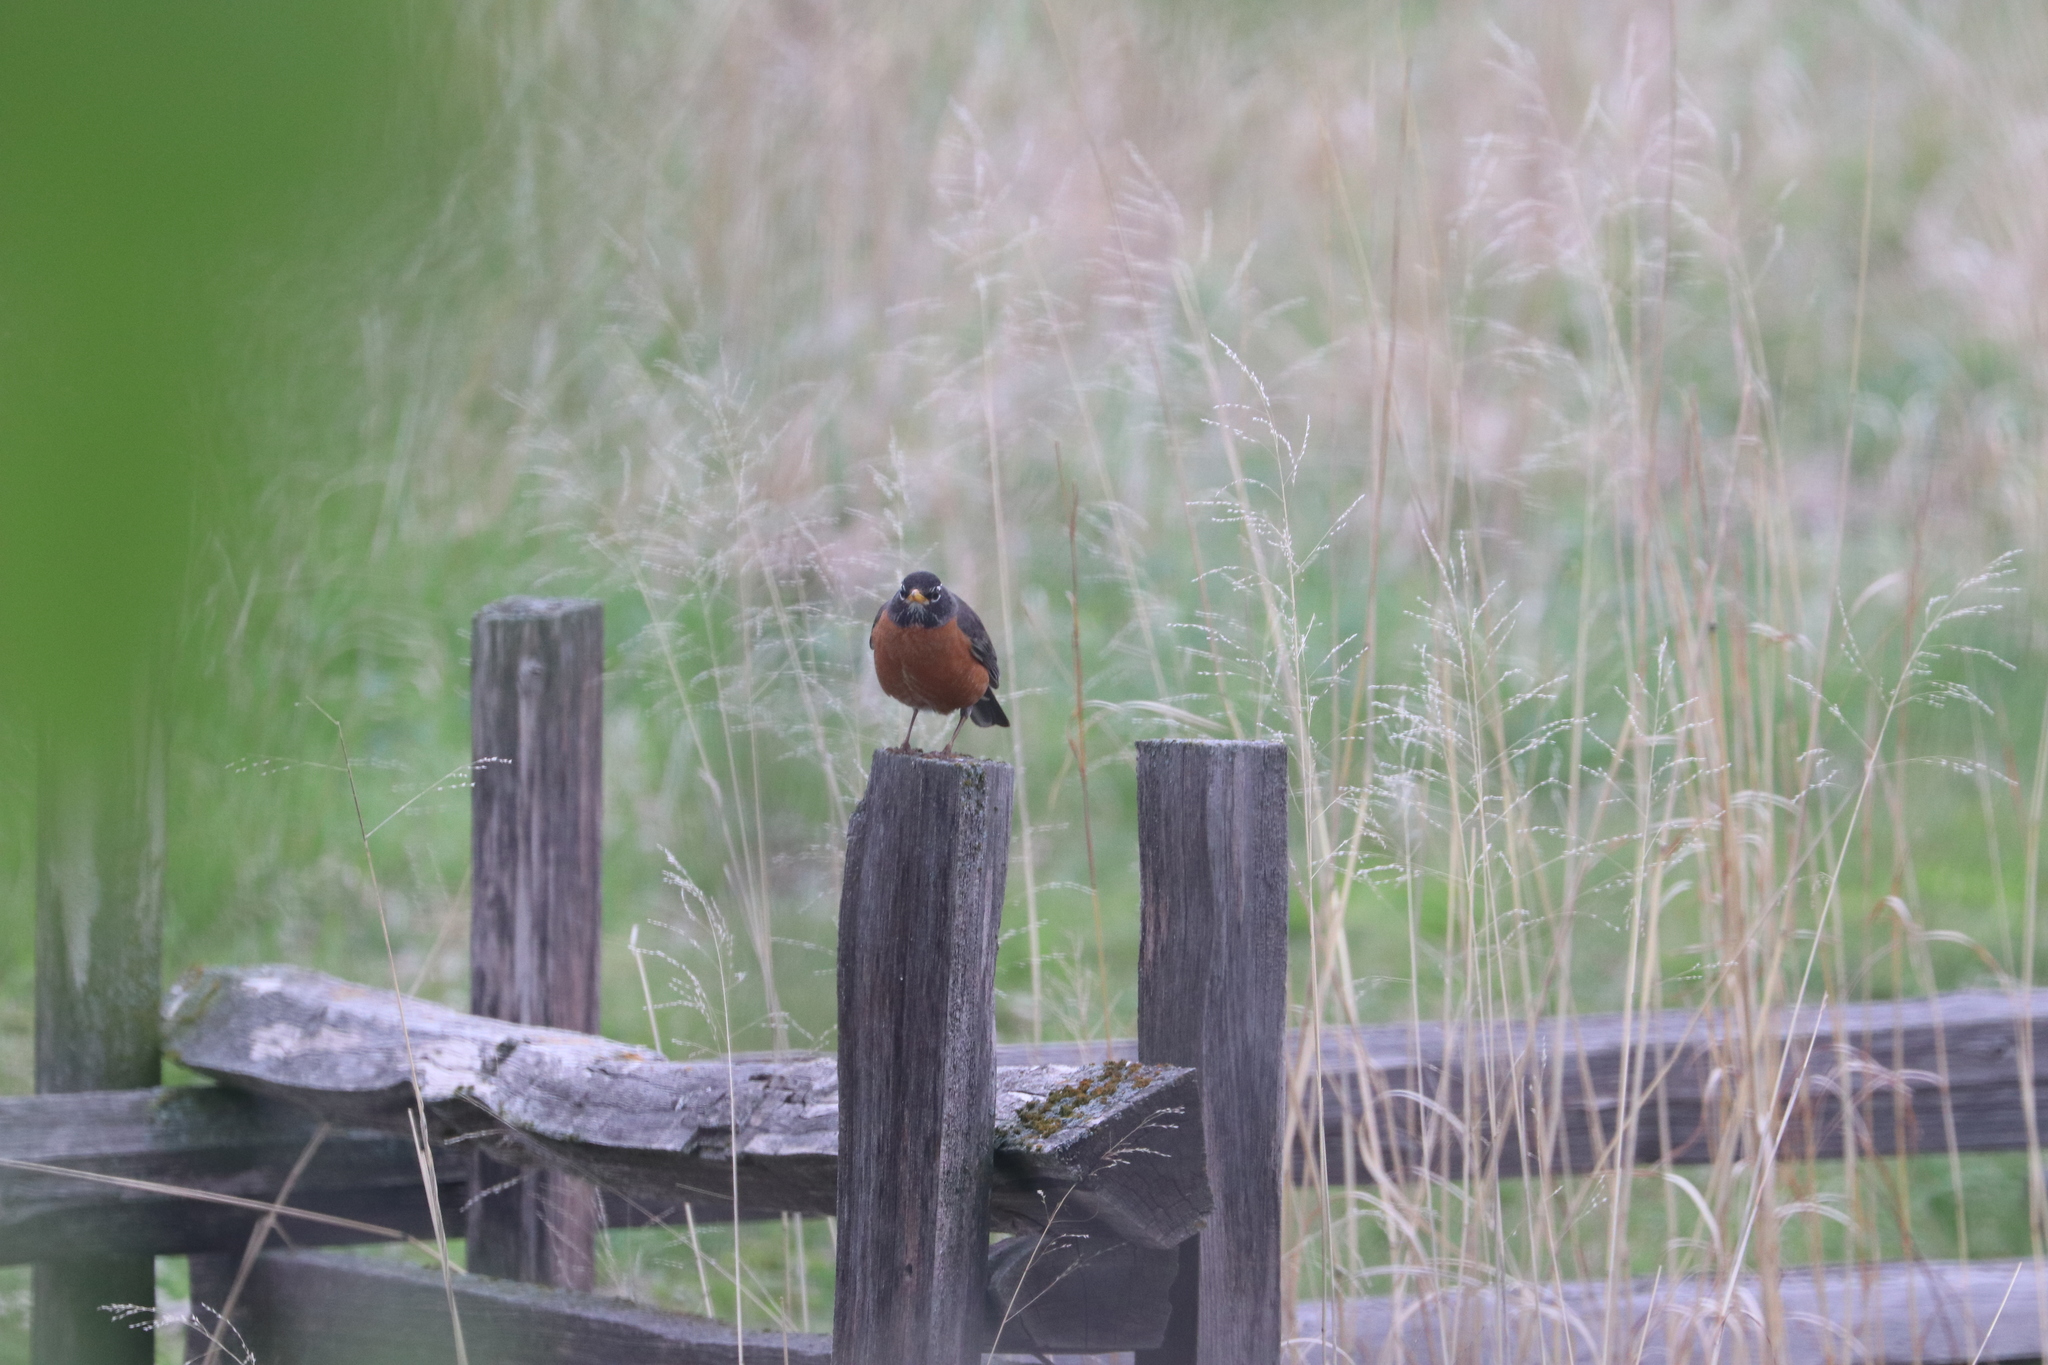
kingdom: Animalia
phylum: Chordata
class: Aves
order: Passeriformes
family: Turdidae
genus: Turdus
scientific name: Turdus migratorius
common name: American robin
